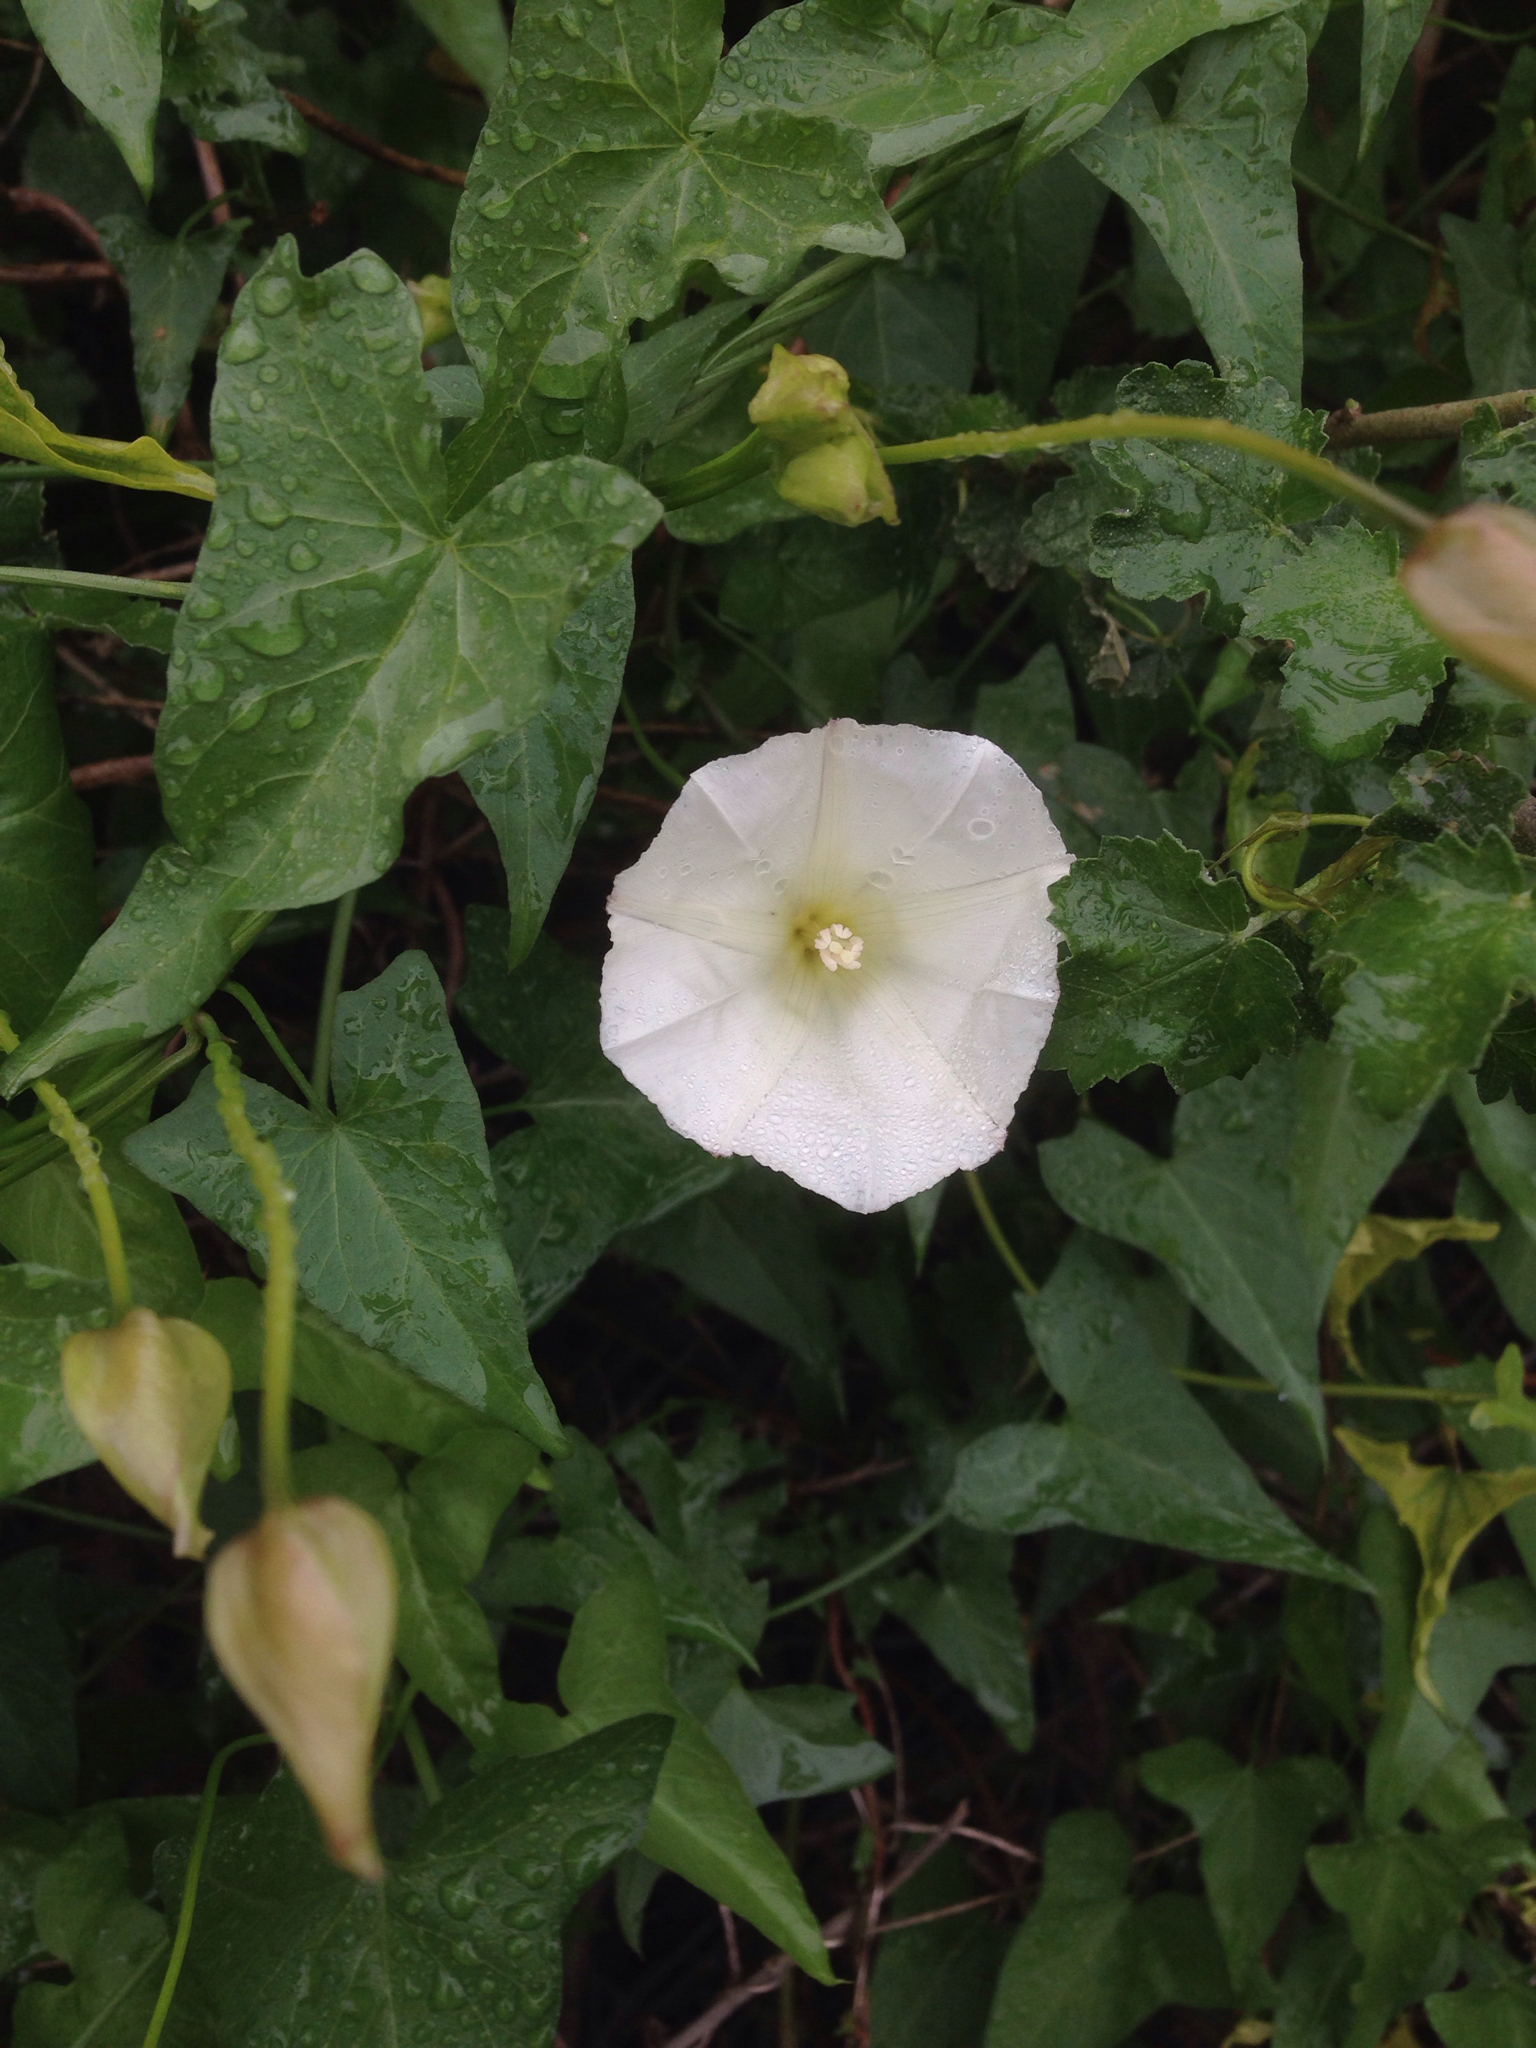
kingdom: Plantae
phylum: Tracheophyta
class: Magnoliopsida
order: Solanales
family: Convolvulaceae
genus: Calystegia
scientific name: Calystegia macrostegia
